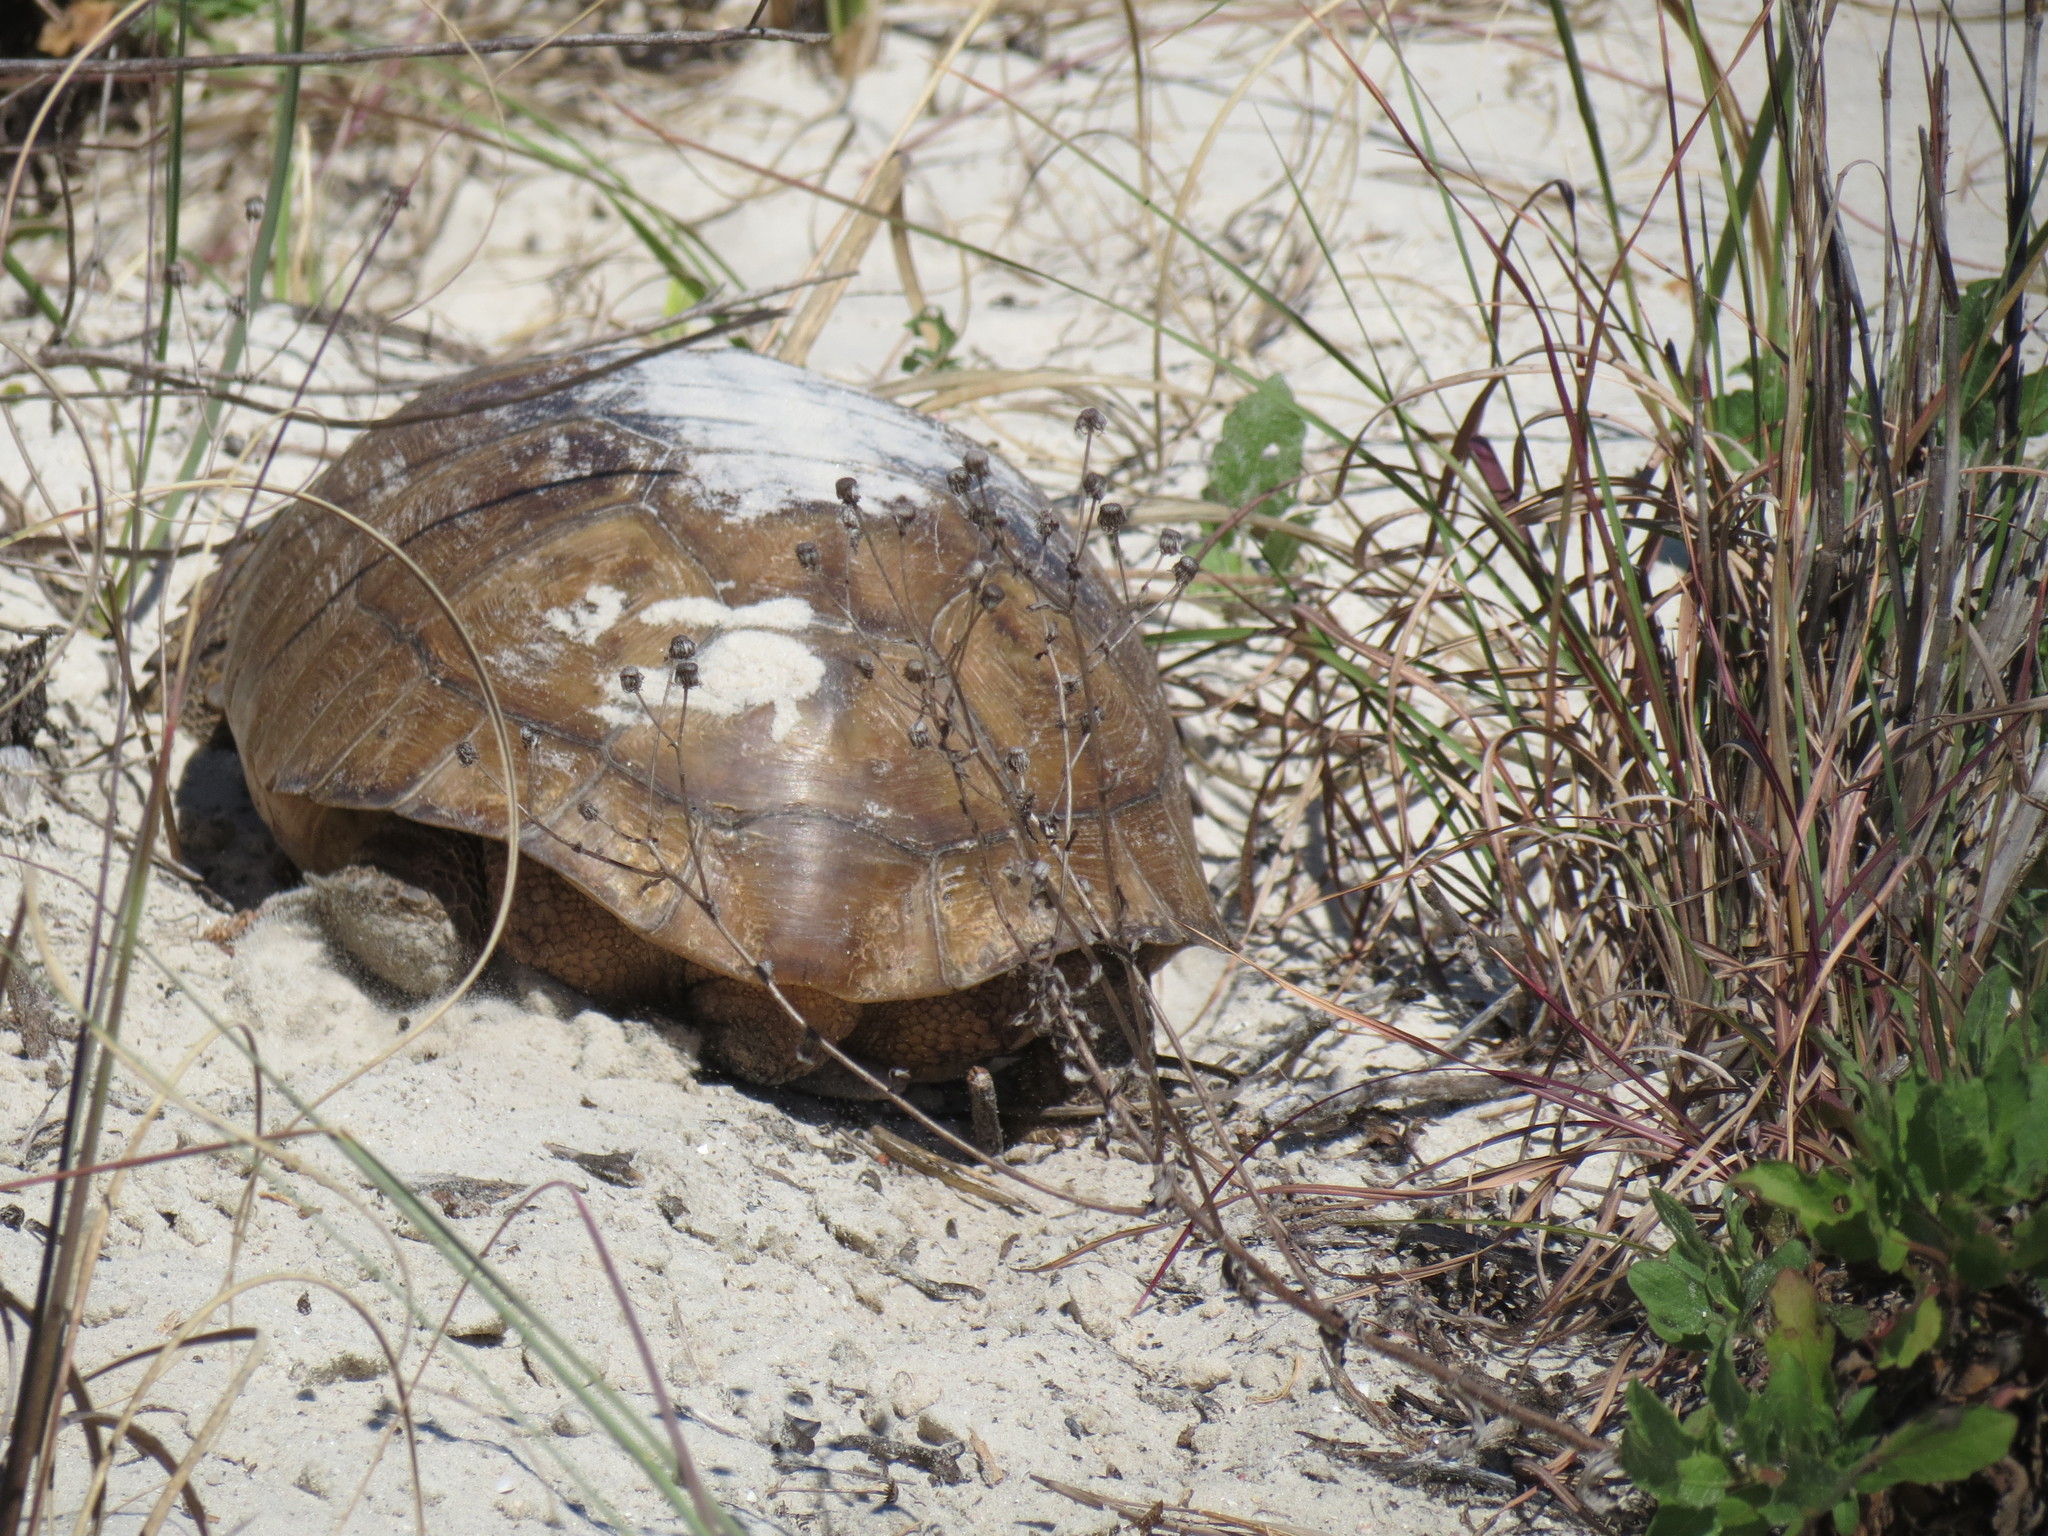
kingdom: Animalia
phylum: Chordata
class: Testudines
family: Testudinidae
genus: Gopherus
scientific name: Gopherus polyphemus
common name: Florida gopher tortoise
